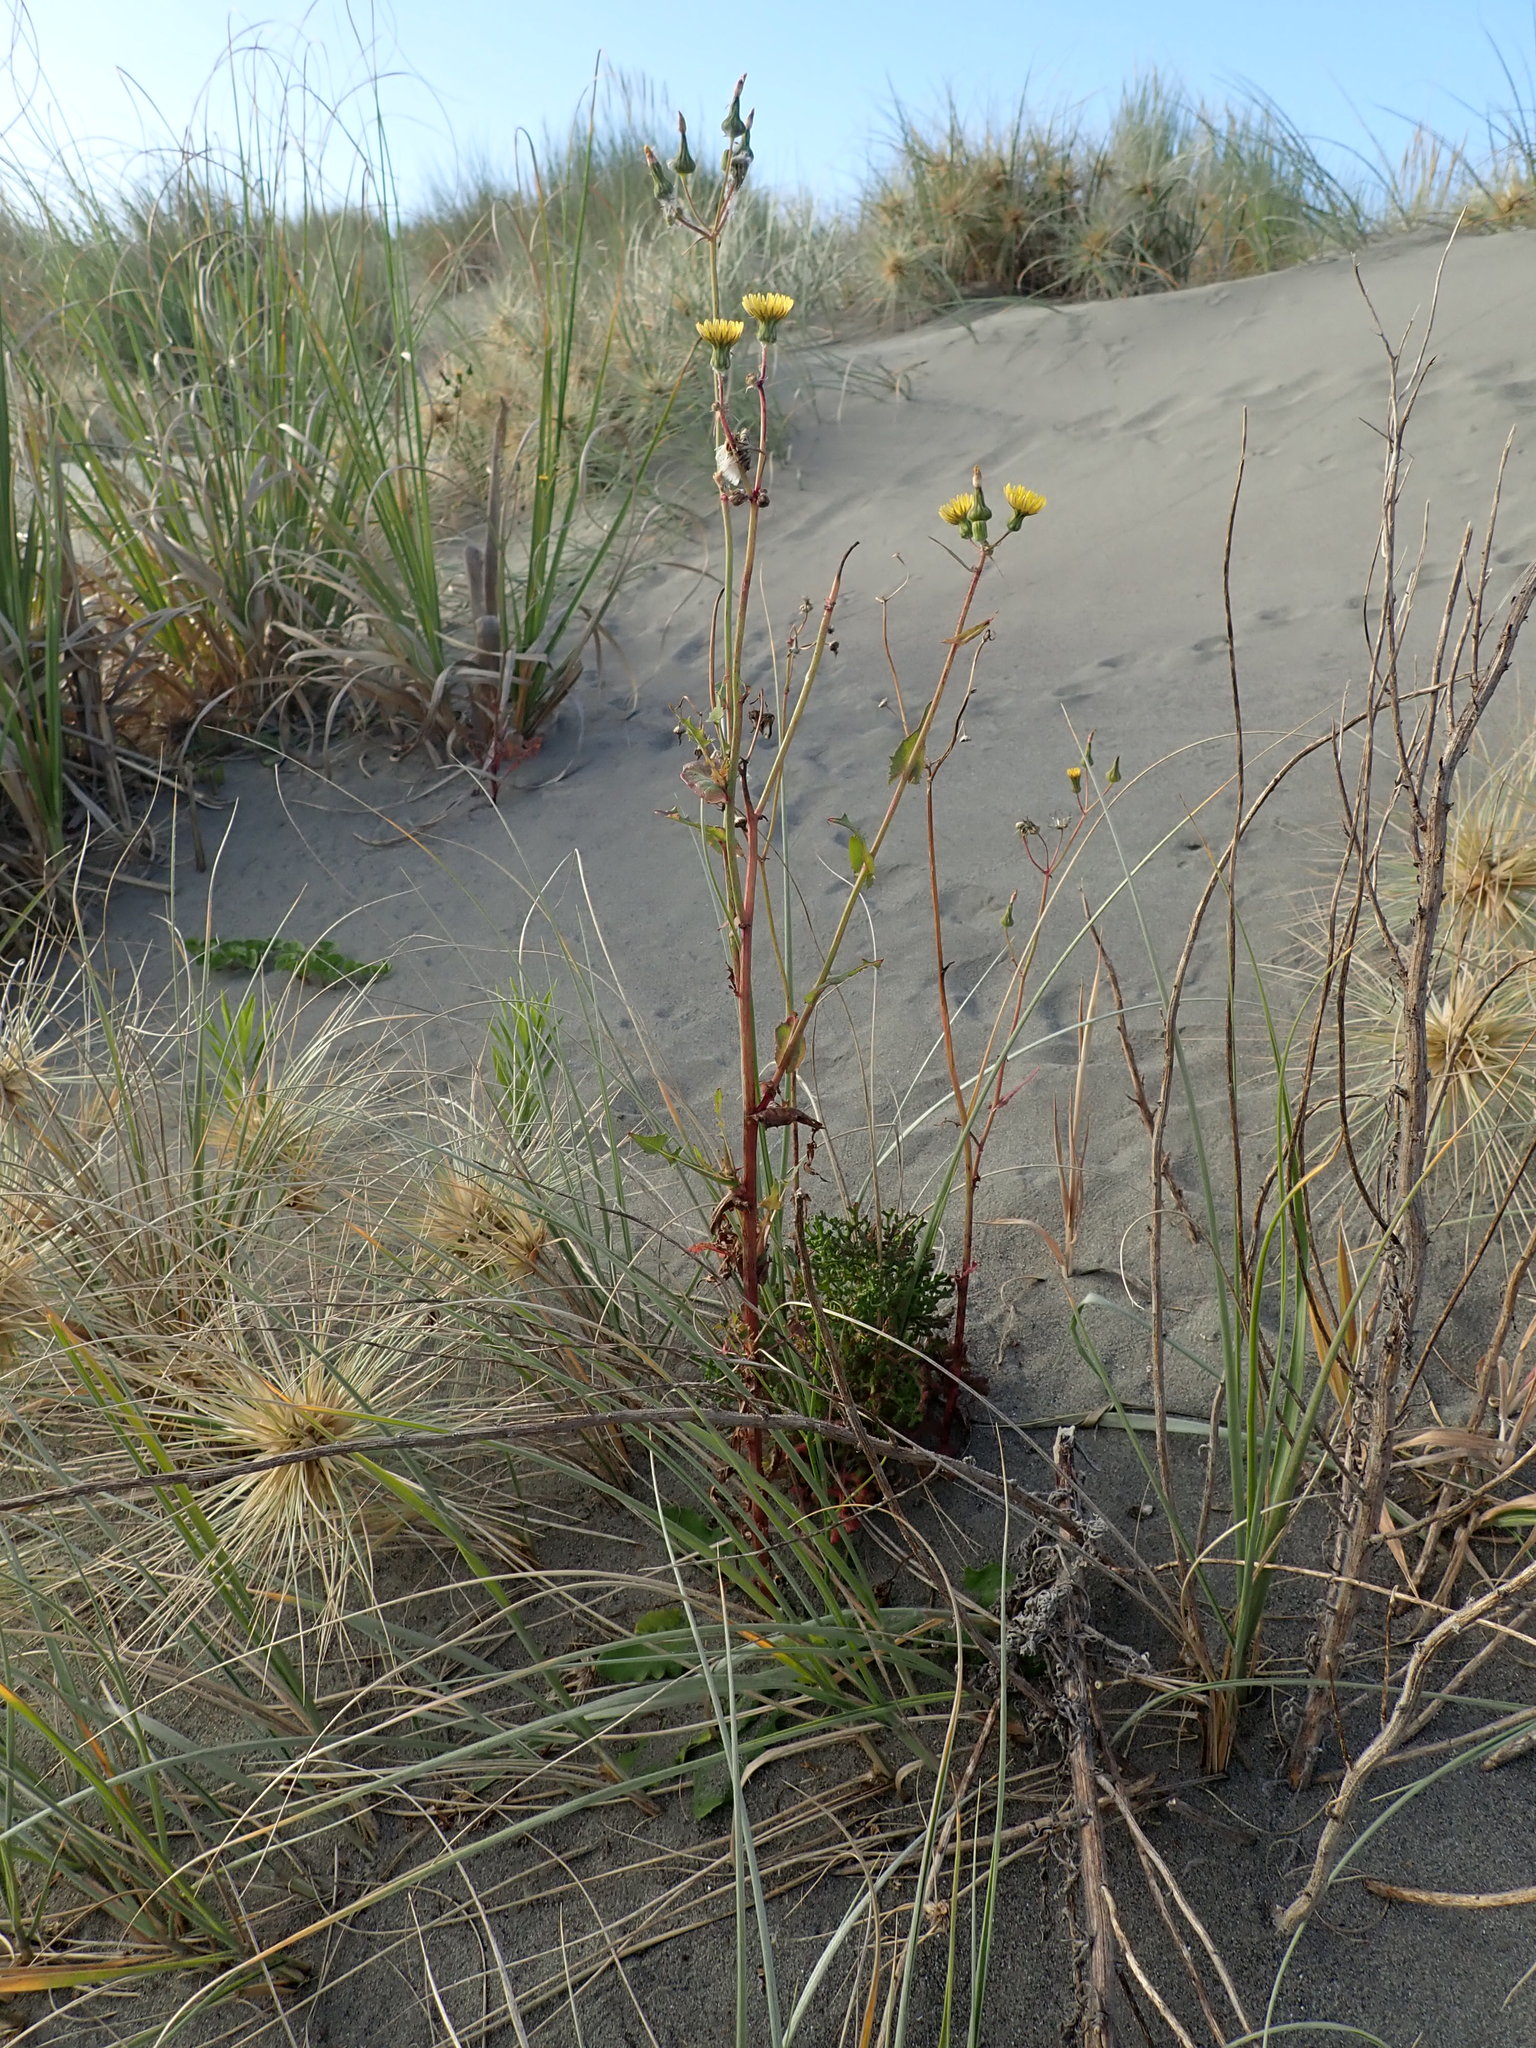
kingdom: Plantae
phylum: Tracheophyta
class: Magnoliopsida
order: Asterales
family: Asteraceae
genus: Sonchus
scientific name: Sonchus oleraceus
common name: Common sowthistle
